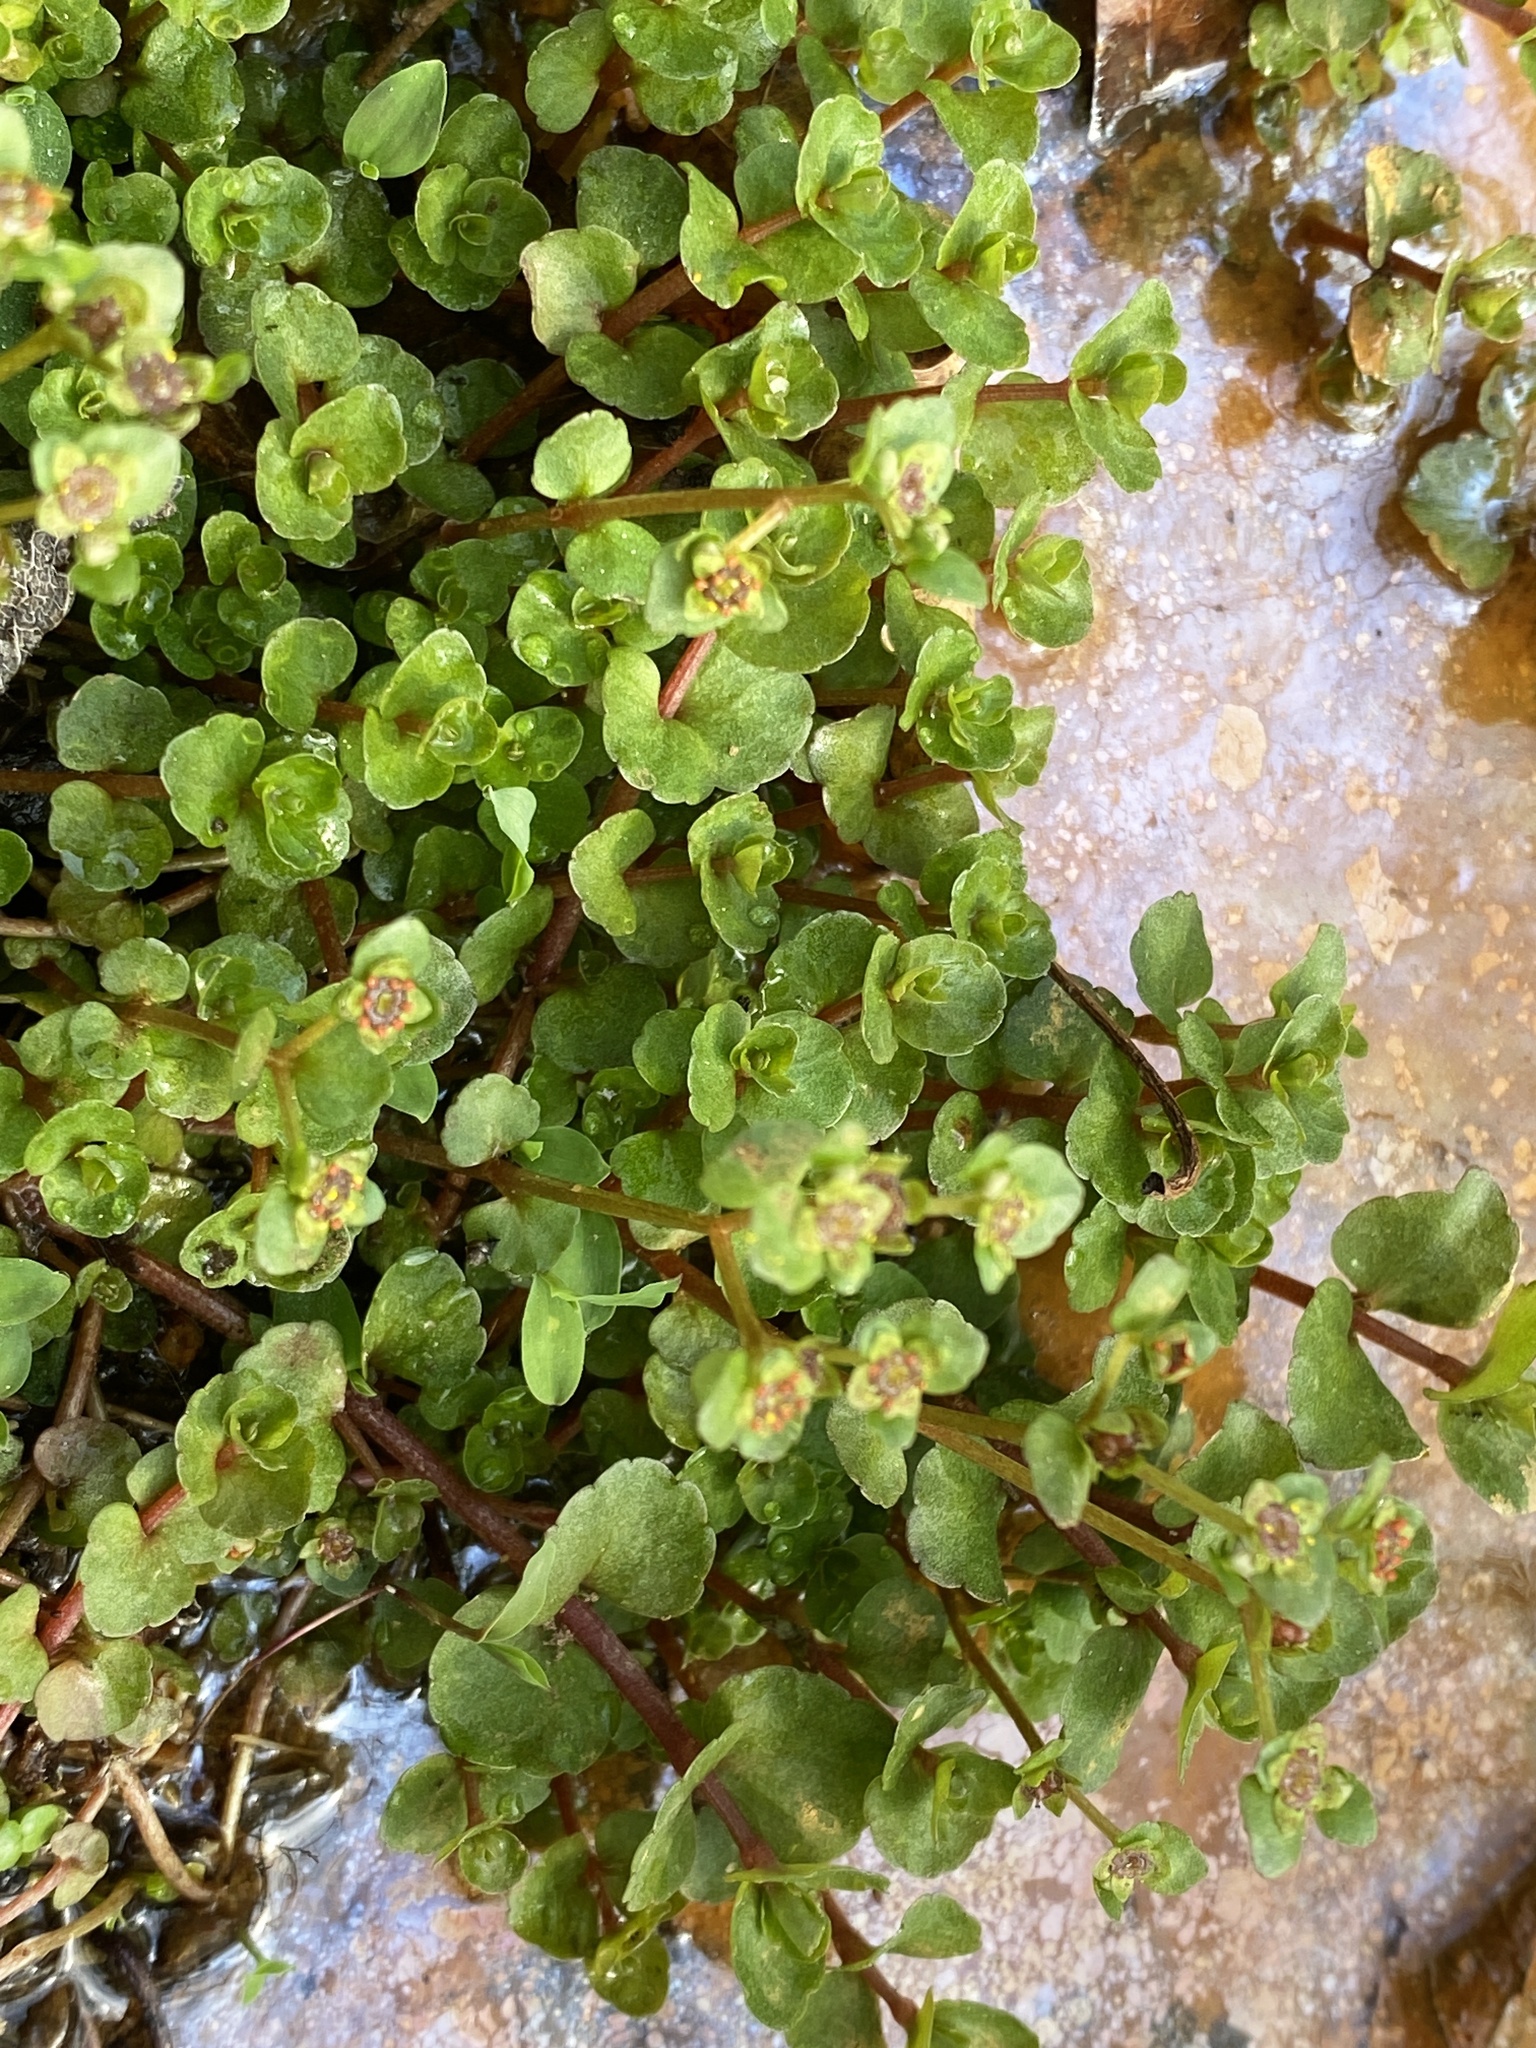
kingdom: Plantae
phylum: Tracheophyta
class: Magnoliopsida
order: Saxifragales
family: Saxifragaceae
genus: Chrysosplenium
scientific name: Chrysosplenium americanum
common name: American golden-saxifrage
